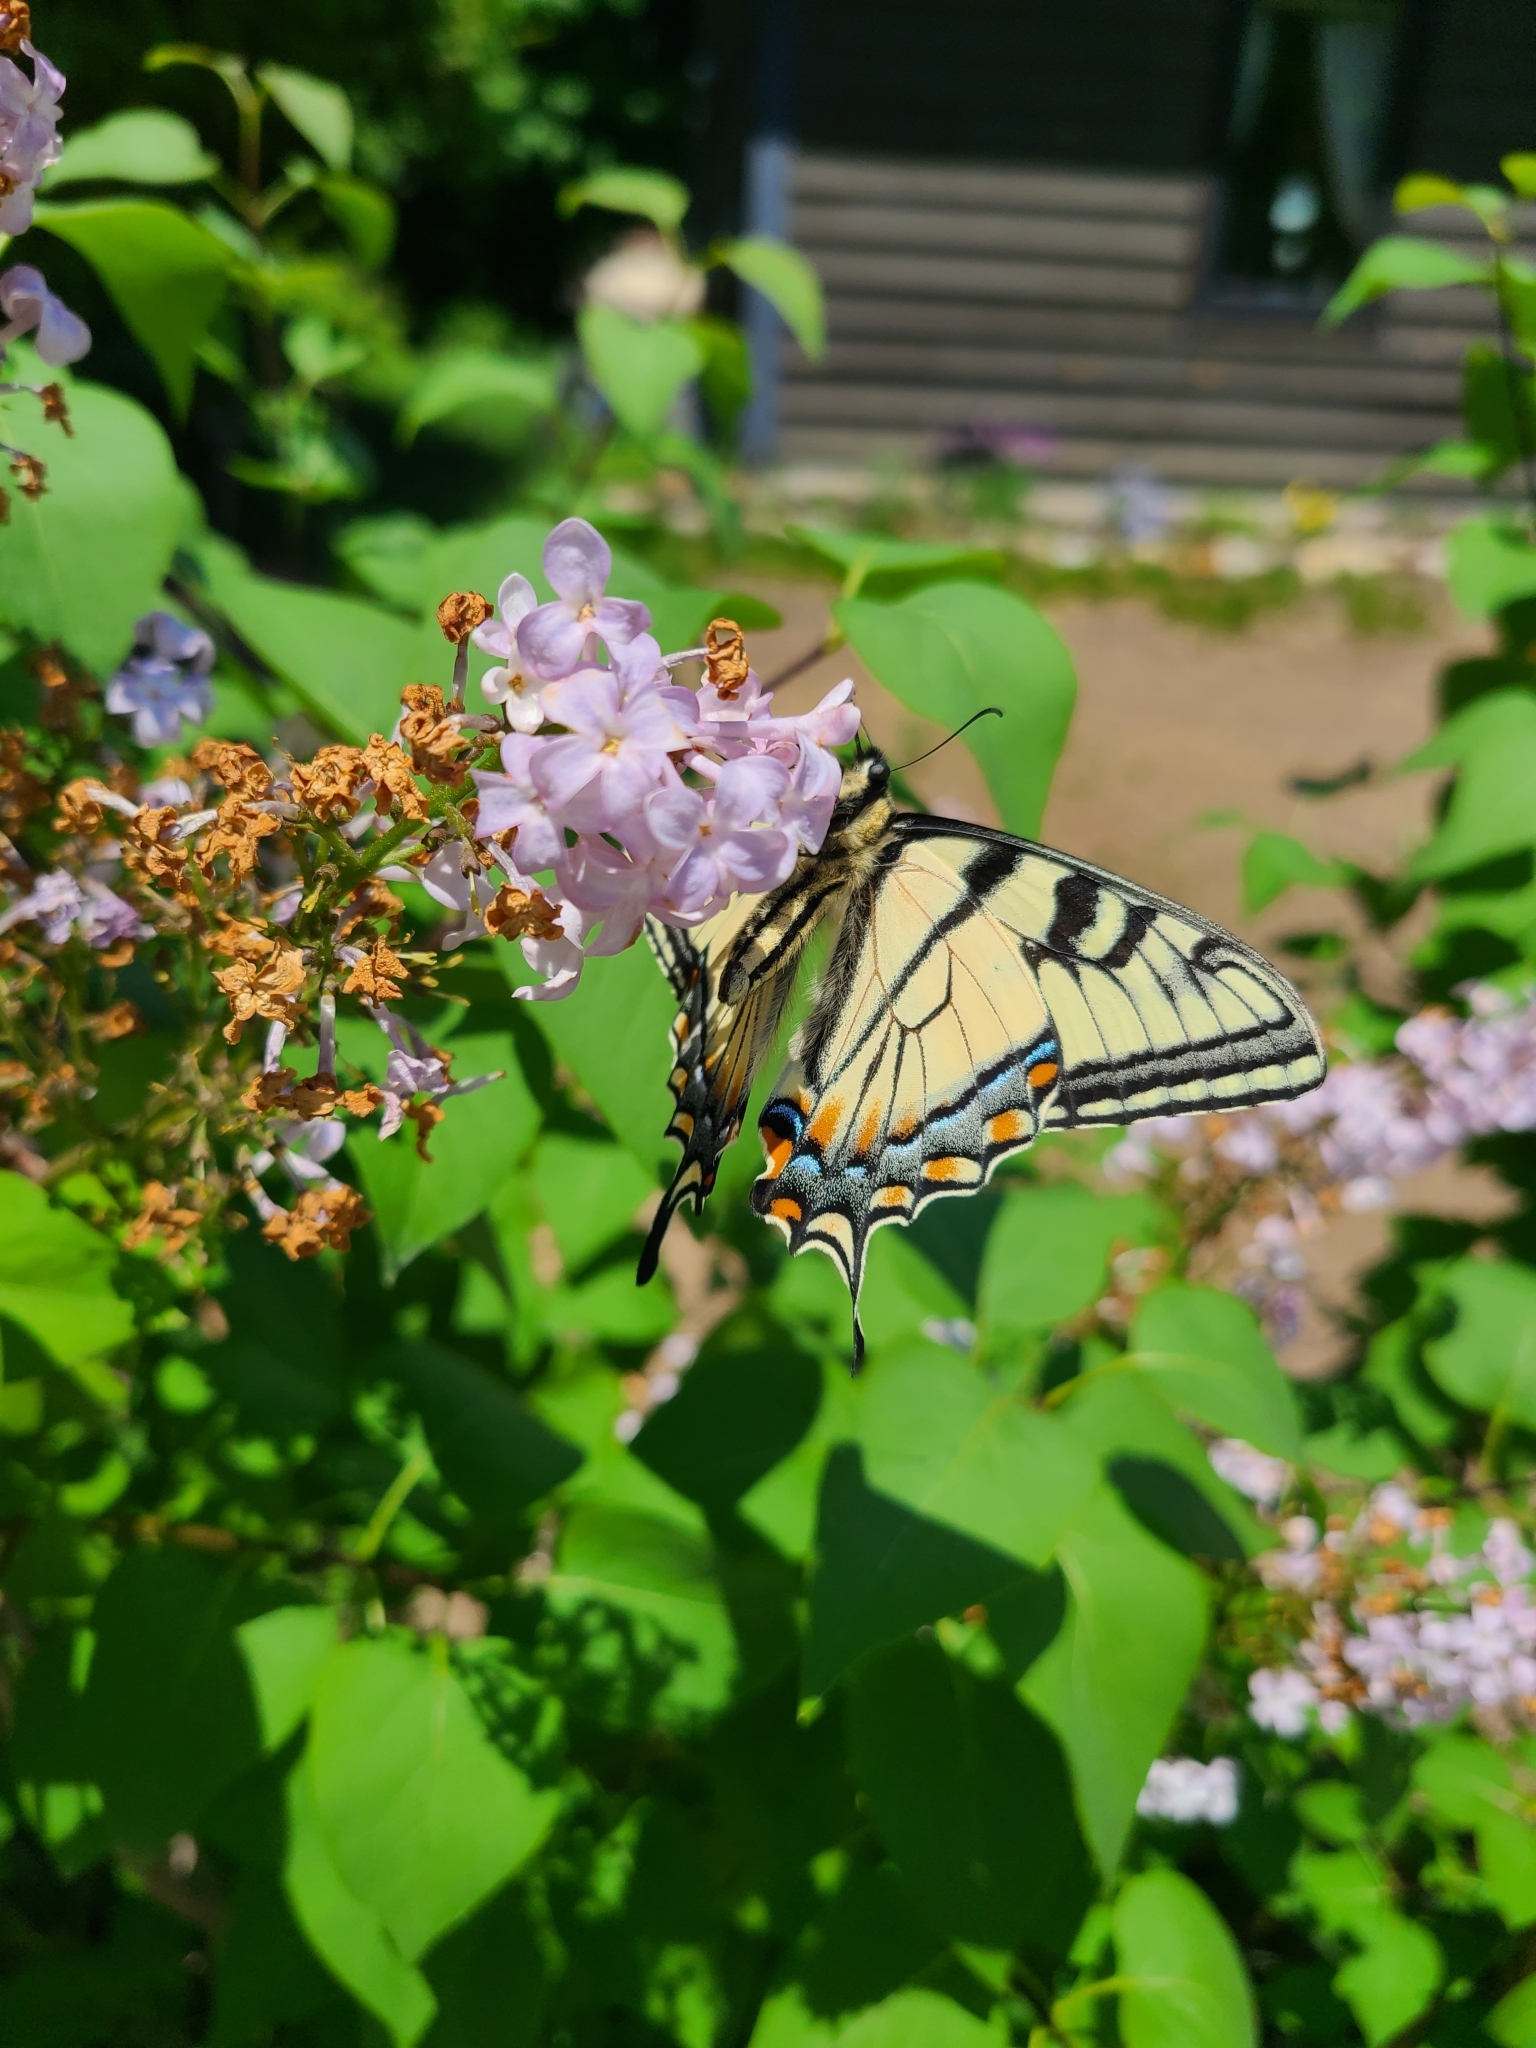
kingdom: Animalia
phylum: Arthropoda
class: Insecta
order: Lepidoptera
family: Papilionidae
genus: Papilio
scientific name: Papilio canadensis
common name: Canadian tiger swallowtail
